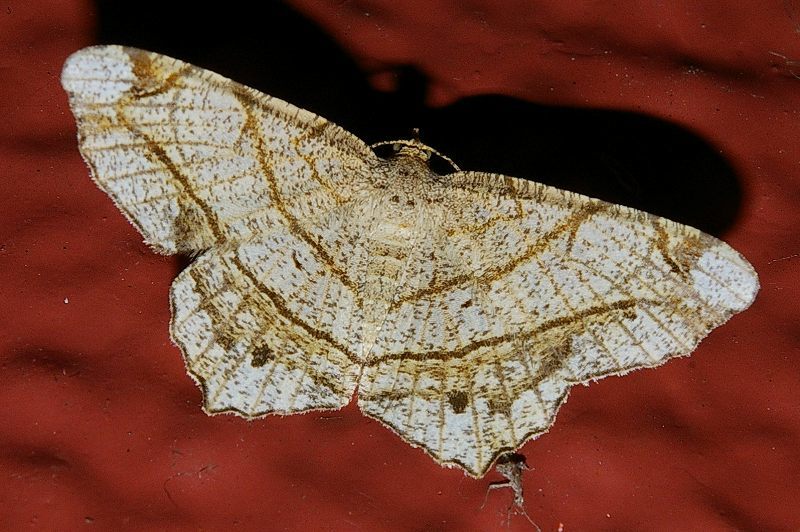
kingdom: Animalia
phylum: Arthropoda
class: Insecta
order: Lepidoptera
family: Geometridae
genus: Chiasmia
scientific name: Chiasmia defixaria
